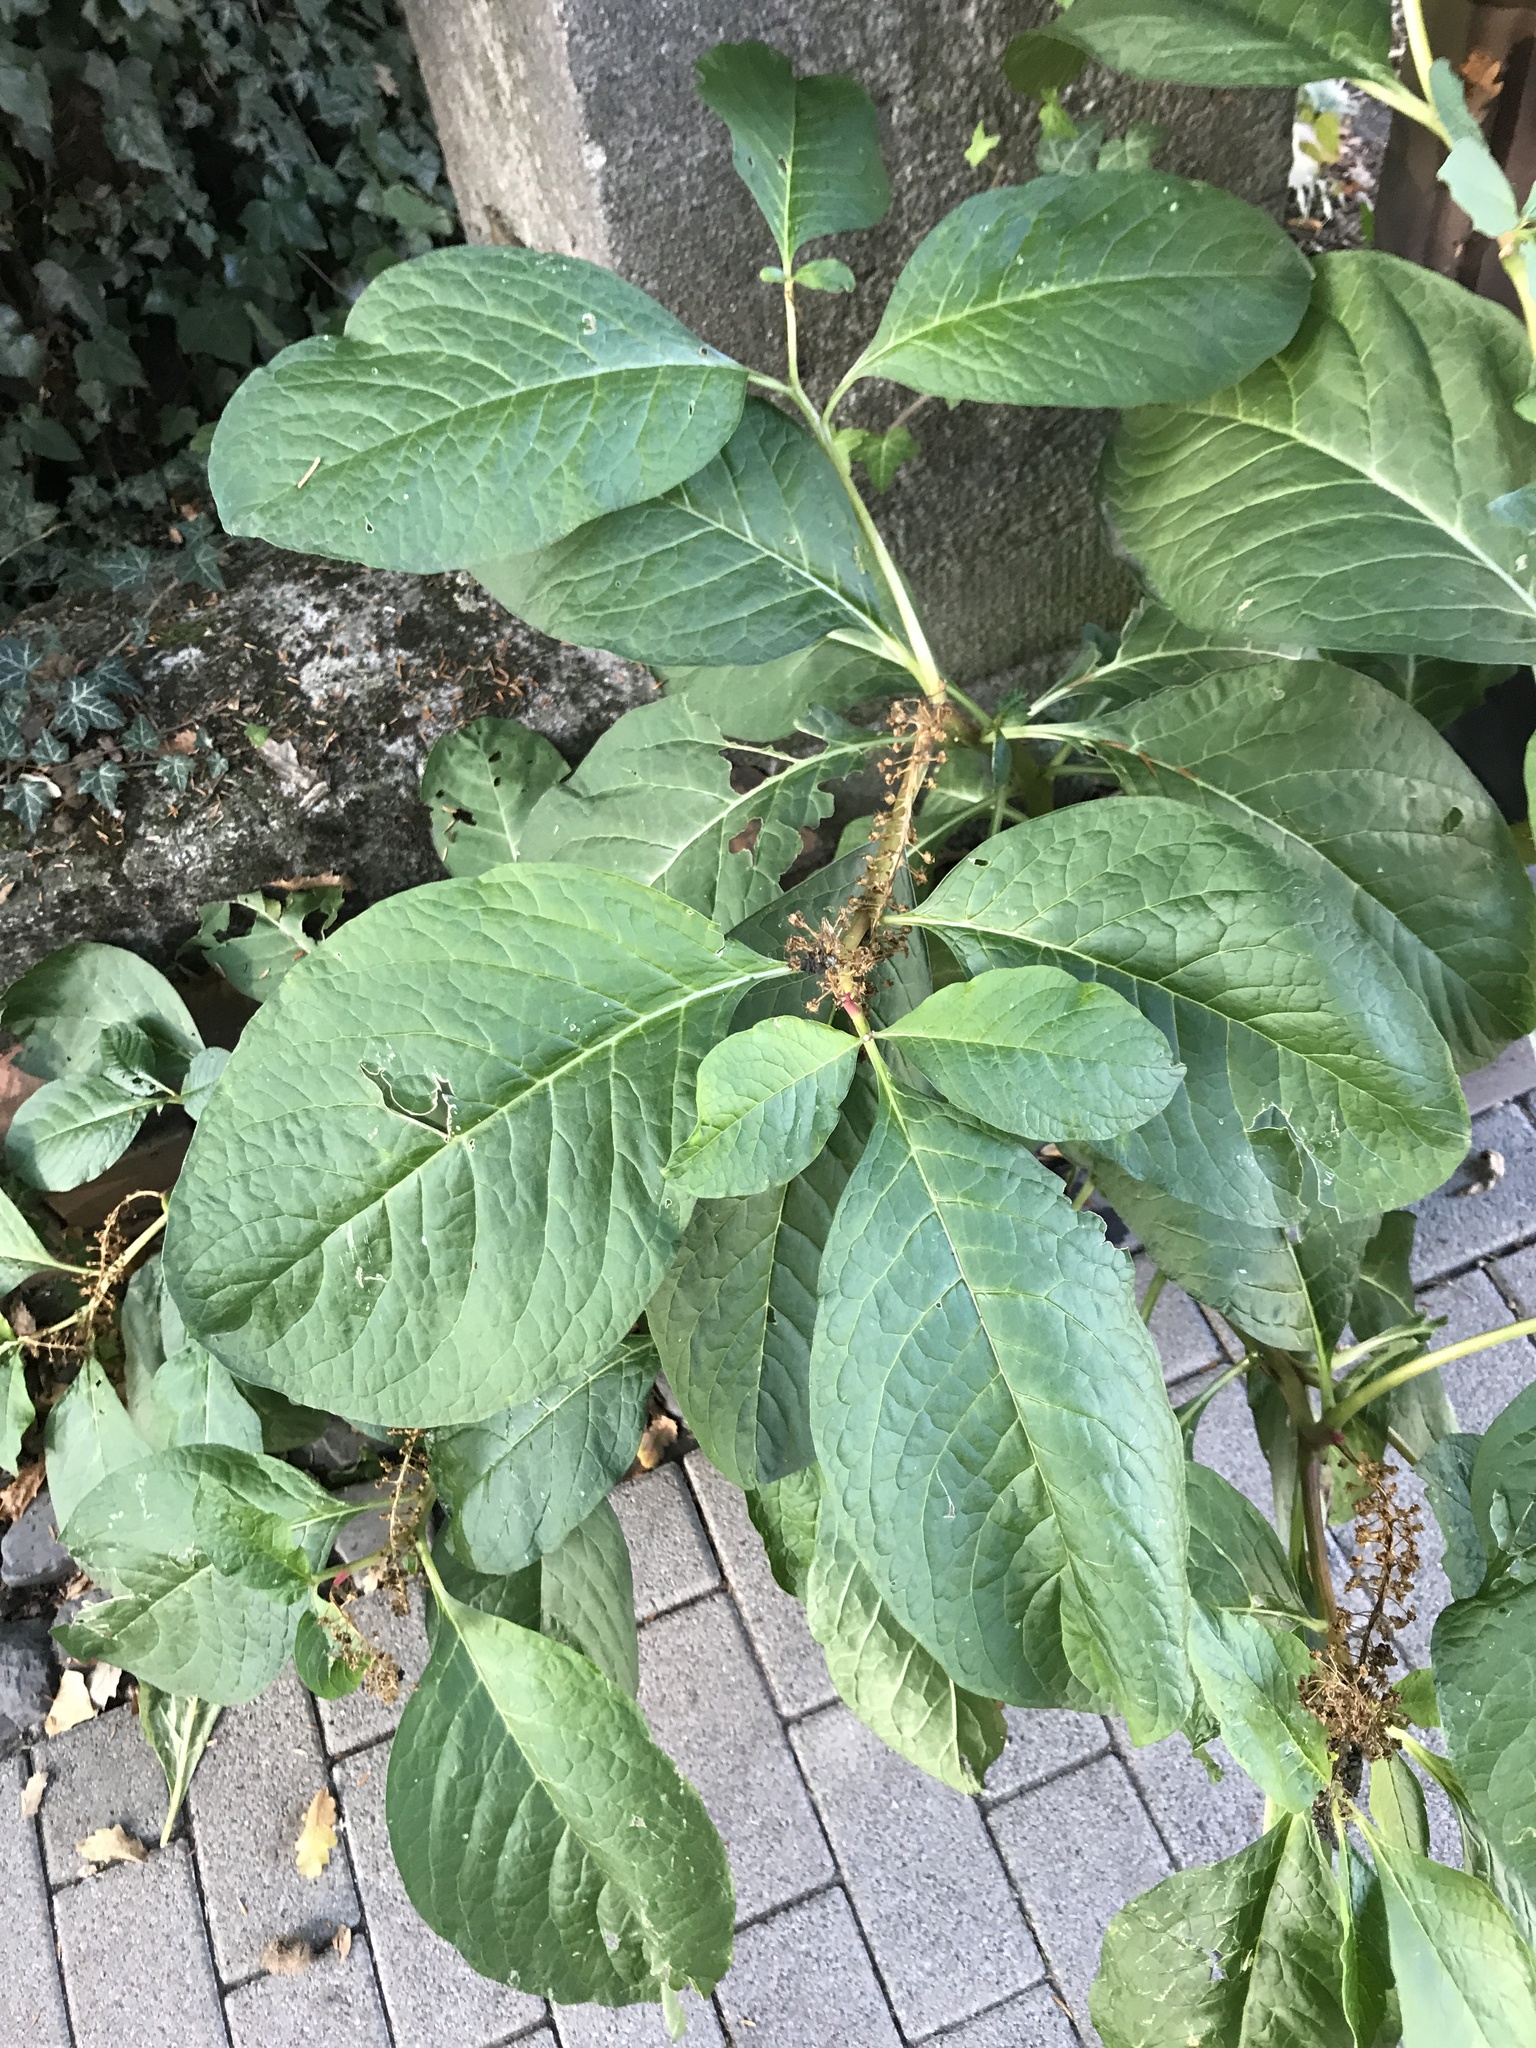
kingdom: Plantae
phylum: Tracheophyta
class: Magnoliopsida
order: Caryophyllales
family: Phytolaccaceae
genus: Phytolacca
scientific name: Phytolacca acinosa
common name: Indian pokeweed
